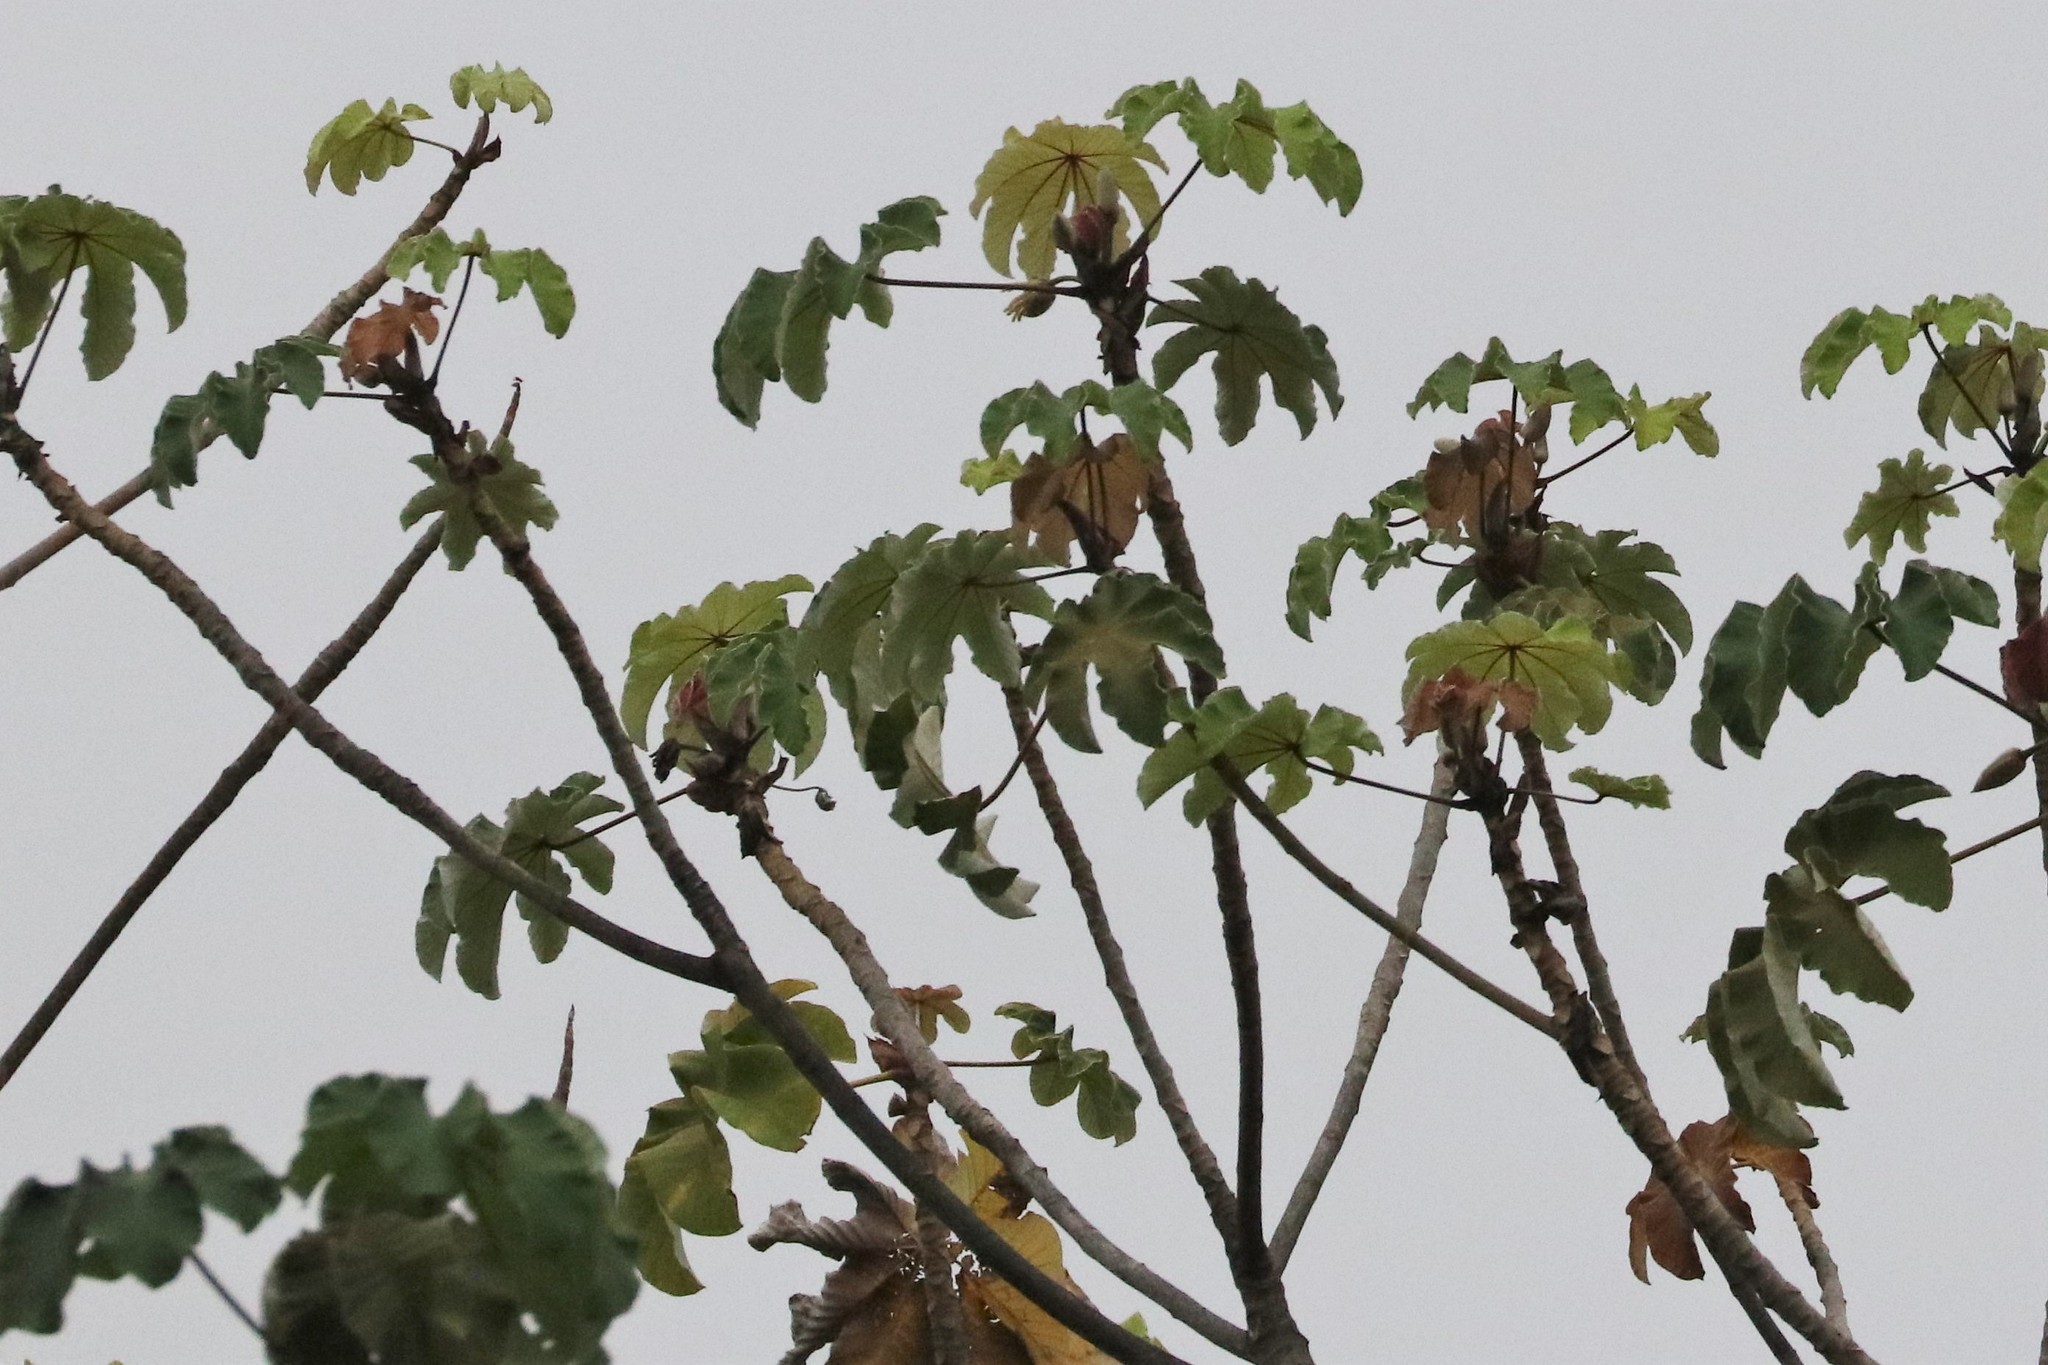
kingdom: Plantae
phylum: Tracheophyta
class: Magnoliopsida
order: Rosales
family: Urticaceae
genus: Cecropia
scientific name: Cecropia peltata
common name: Trumpet-tree
